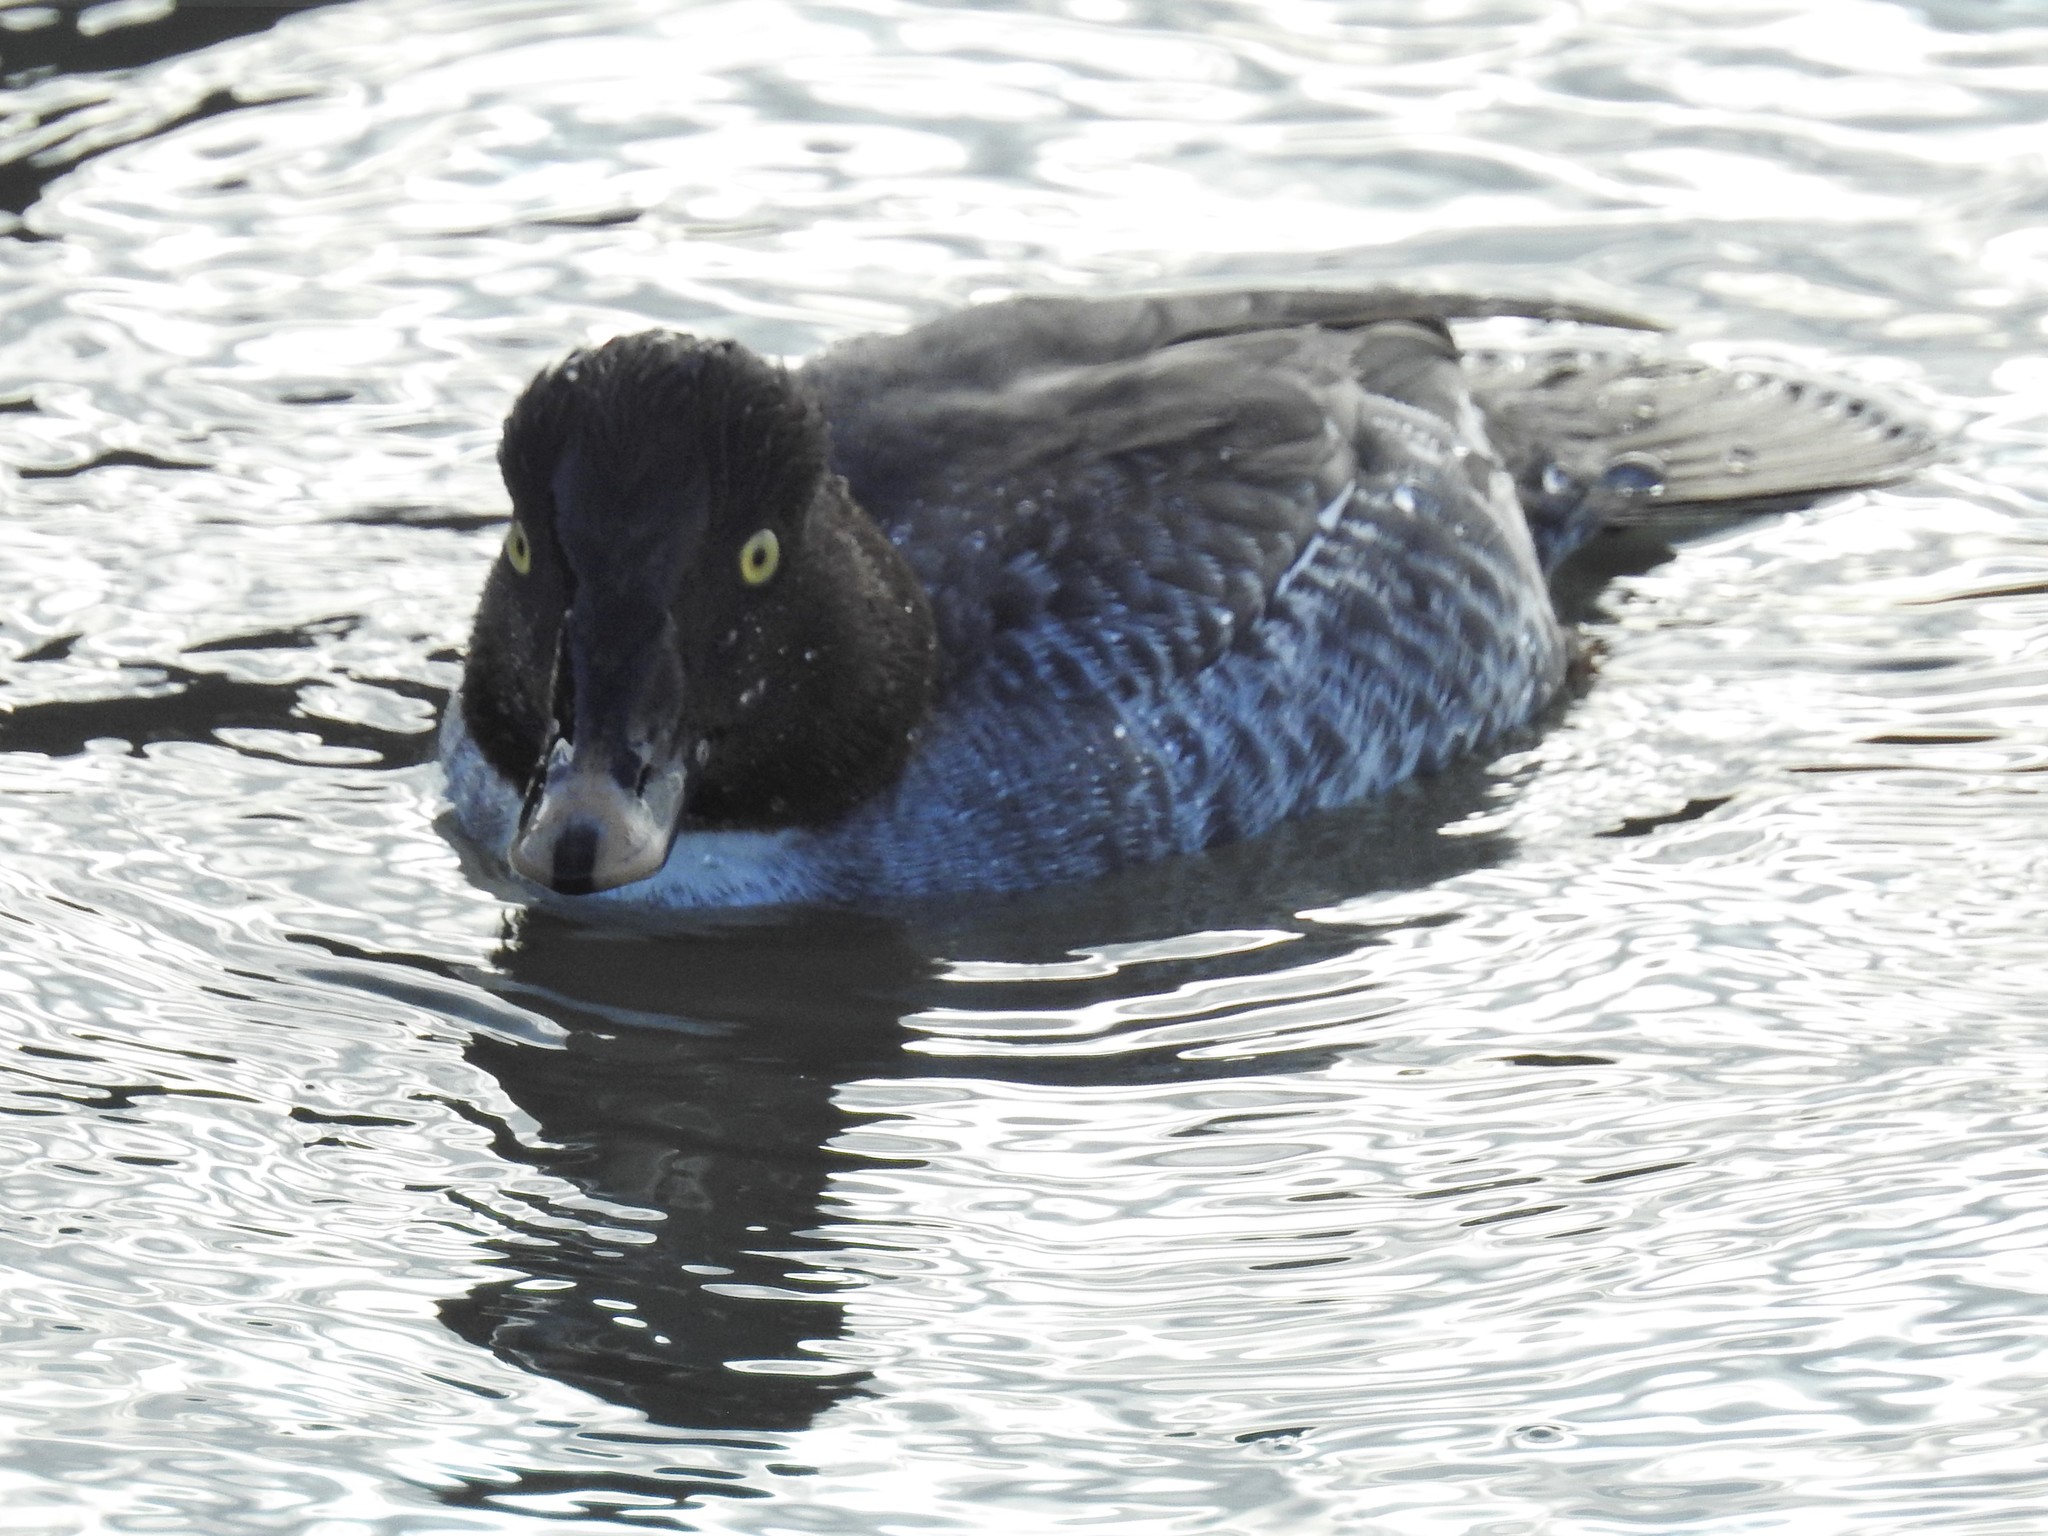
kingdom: Animalia
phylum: Chordata
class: Aves
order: Anseriformes
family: Anatidae
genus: Bucephala
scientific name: Bucephala clangula
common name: Common goldeneye
